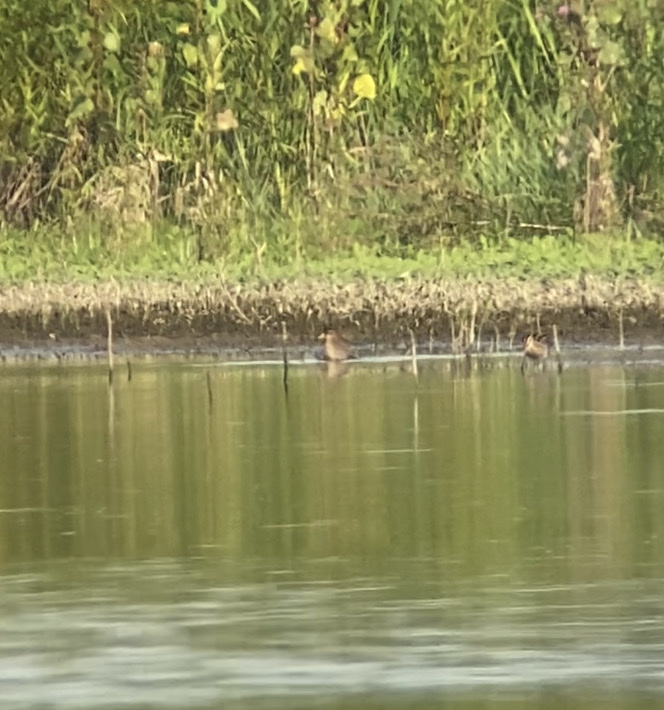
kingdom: Animalia
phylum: Chordata
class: Aves
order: Gruiformes
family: Rallidae
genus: Porzana
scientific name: Porzana carolina
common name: Sora
